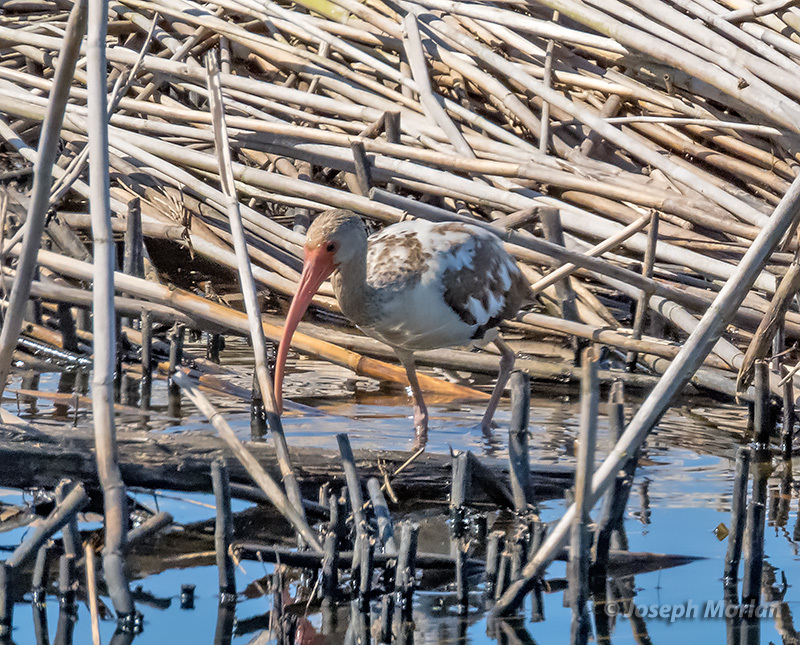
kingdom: Animalia
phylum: Chordata
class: Aves
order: Pelecaniformes
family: Threskiornithidae
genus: Eudocimus
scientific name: Eudocimus albus
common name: White ibis
